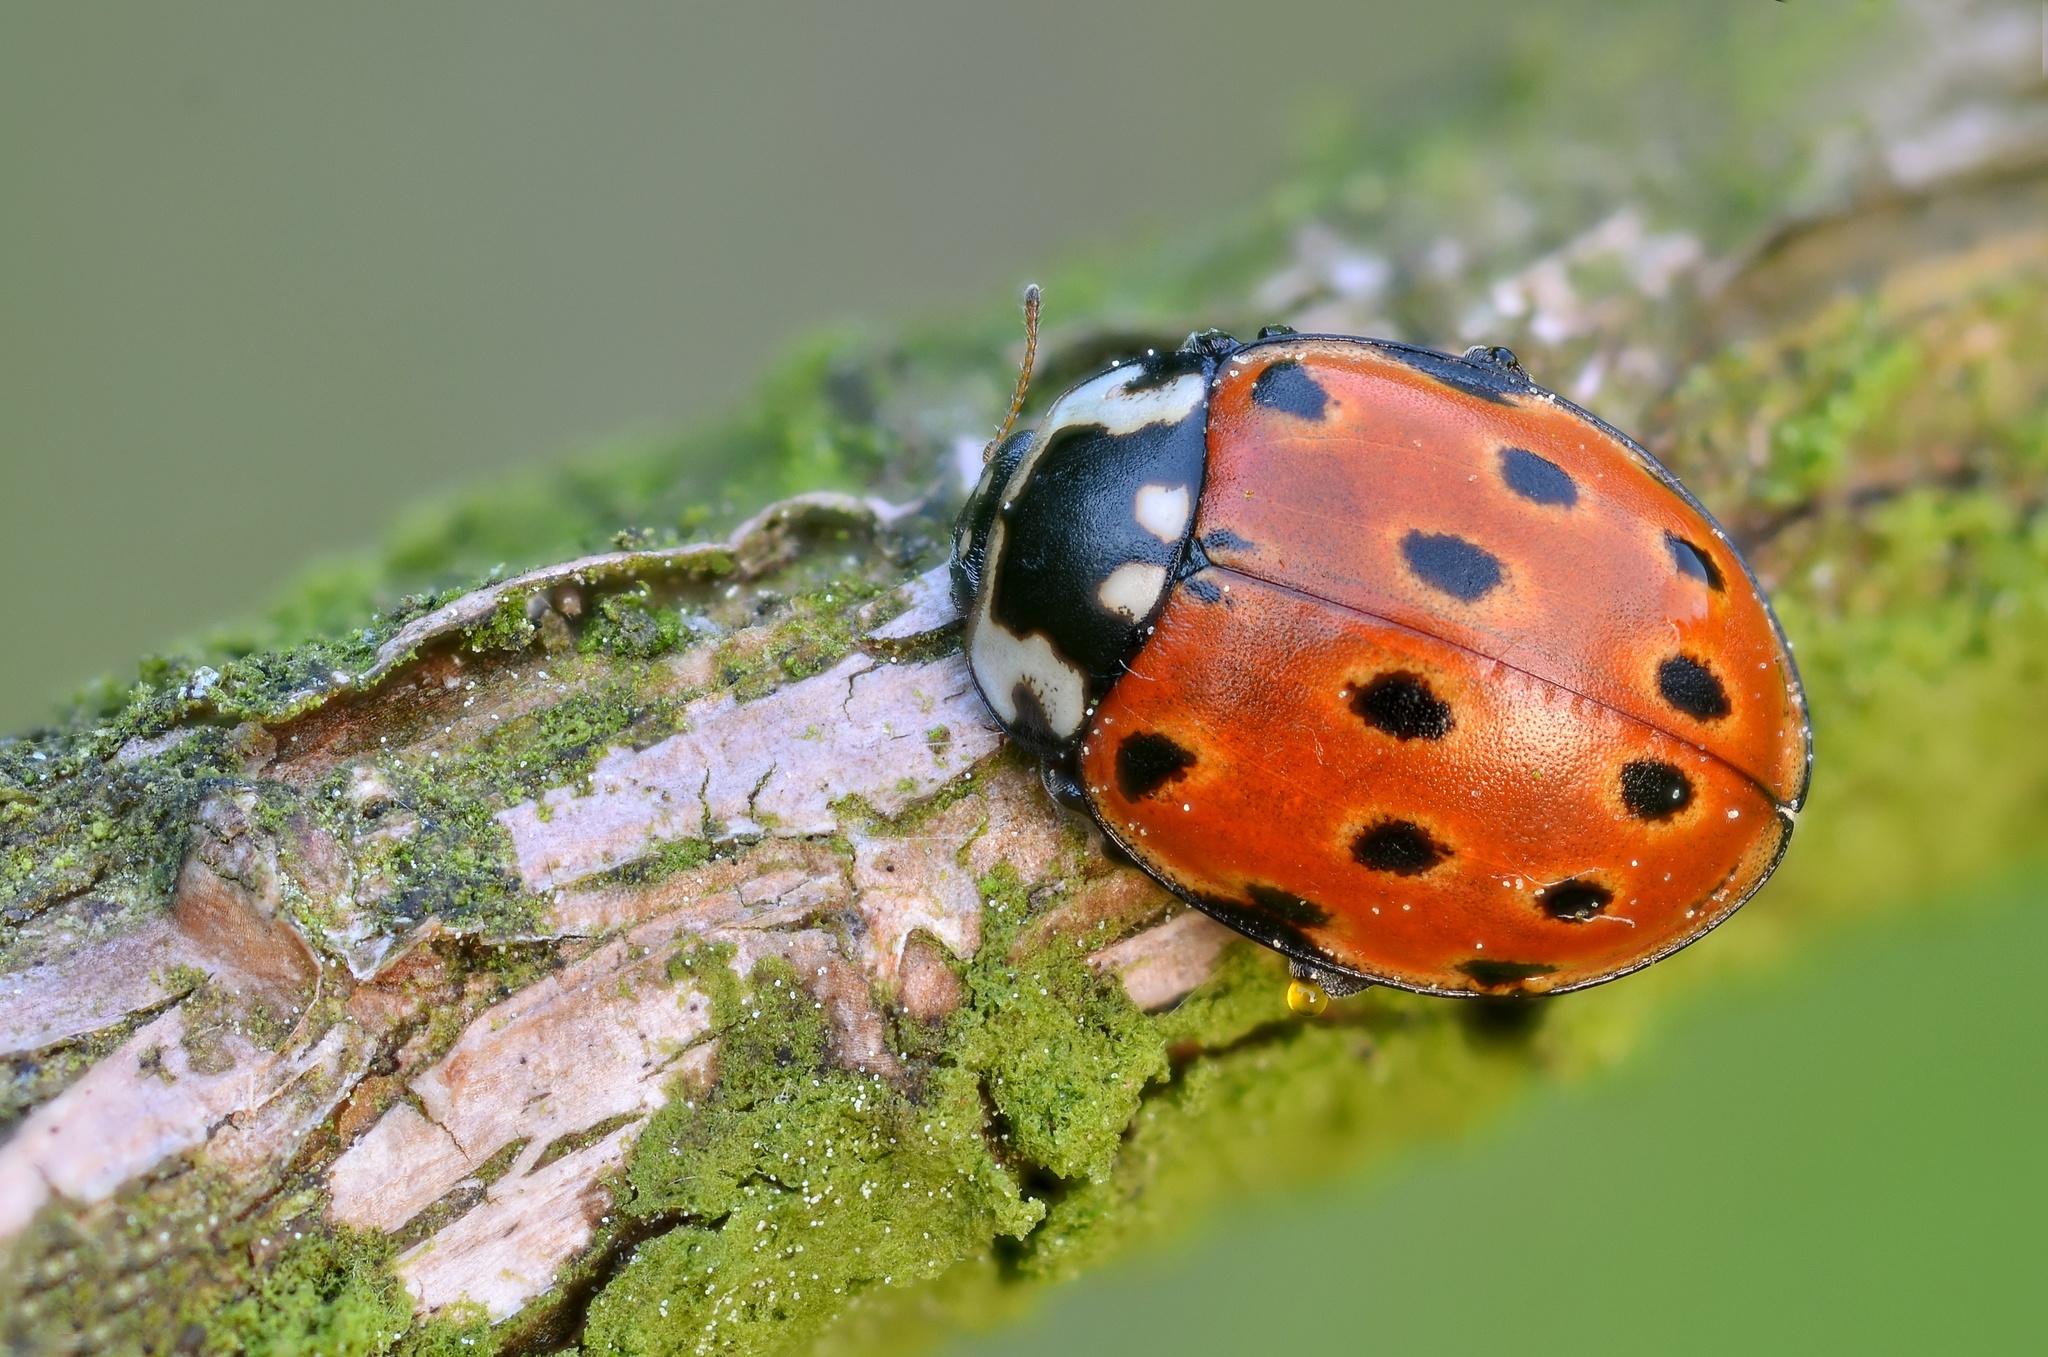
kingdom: Animalia
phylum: Arthropoda
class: Insecta
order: Coleoptera
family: Coccinellidae
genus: Anatis
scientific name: Anatis ocellata
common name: Eyed ladybird
